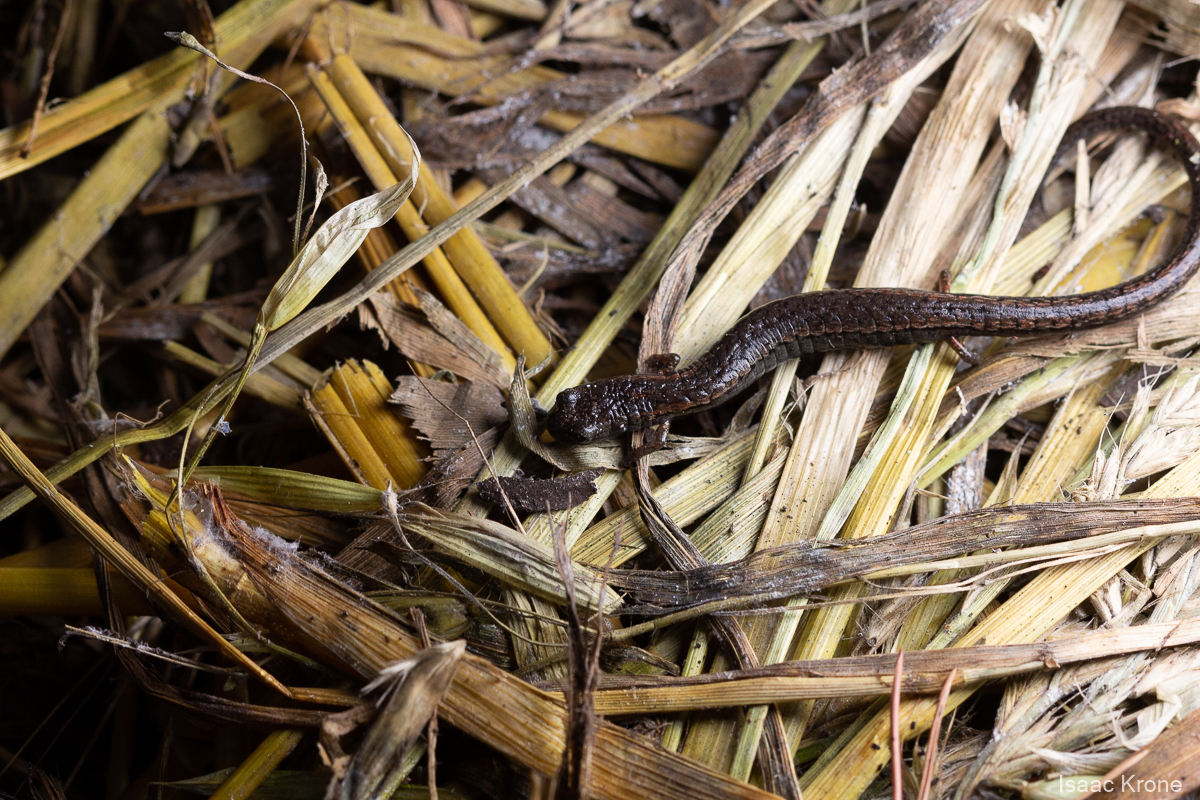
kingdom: Animalia
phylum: Chordata
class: Amphibia
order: Caudata
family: Plethodontidae
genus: Batrachoseps
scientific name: Batrachoseps attenuatus
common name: California slender salamander
